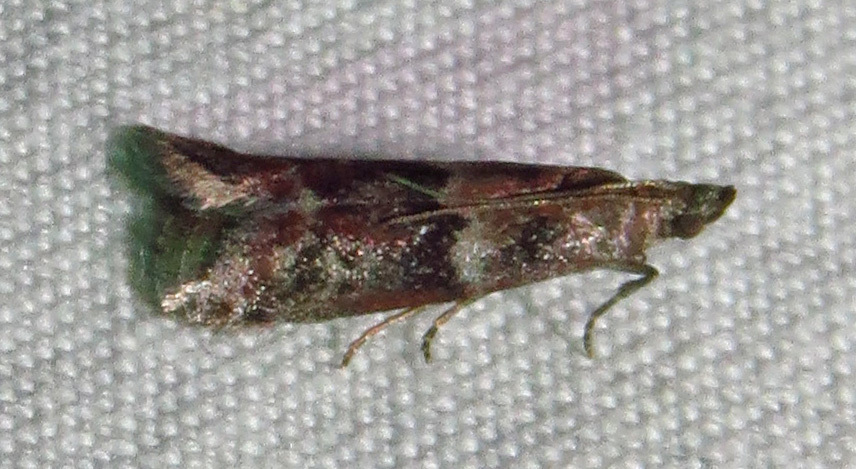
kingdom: Animalia
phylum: Arthropoda
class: Insecta
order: Lepidoptera
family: Pyralidae
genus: Ephestiodes
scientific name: Ephestiodes infimella
